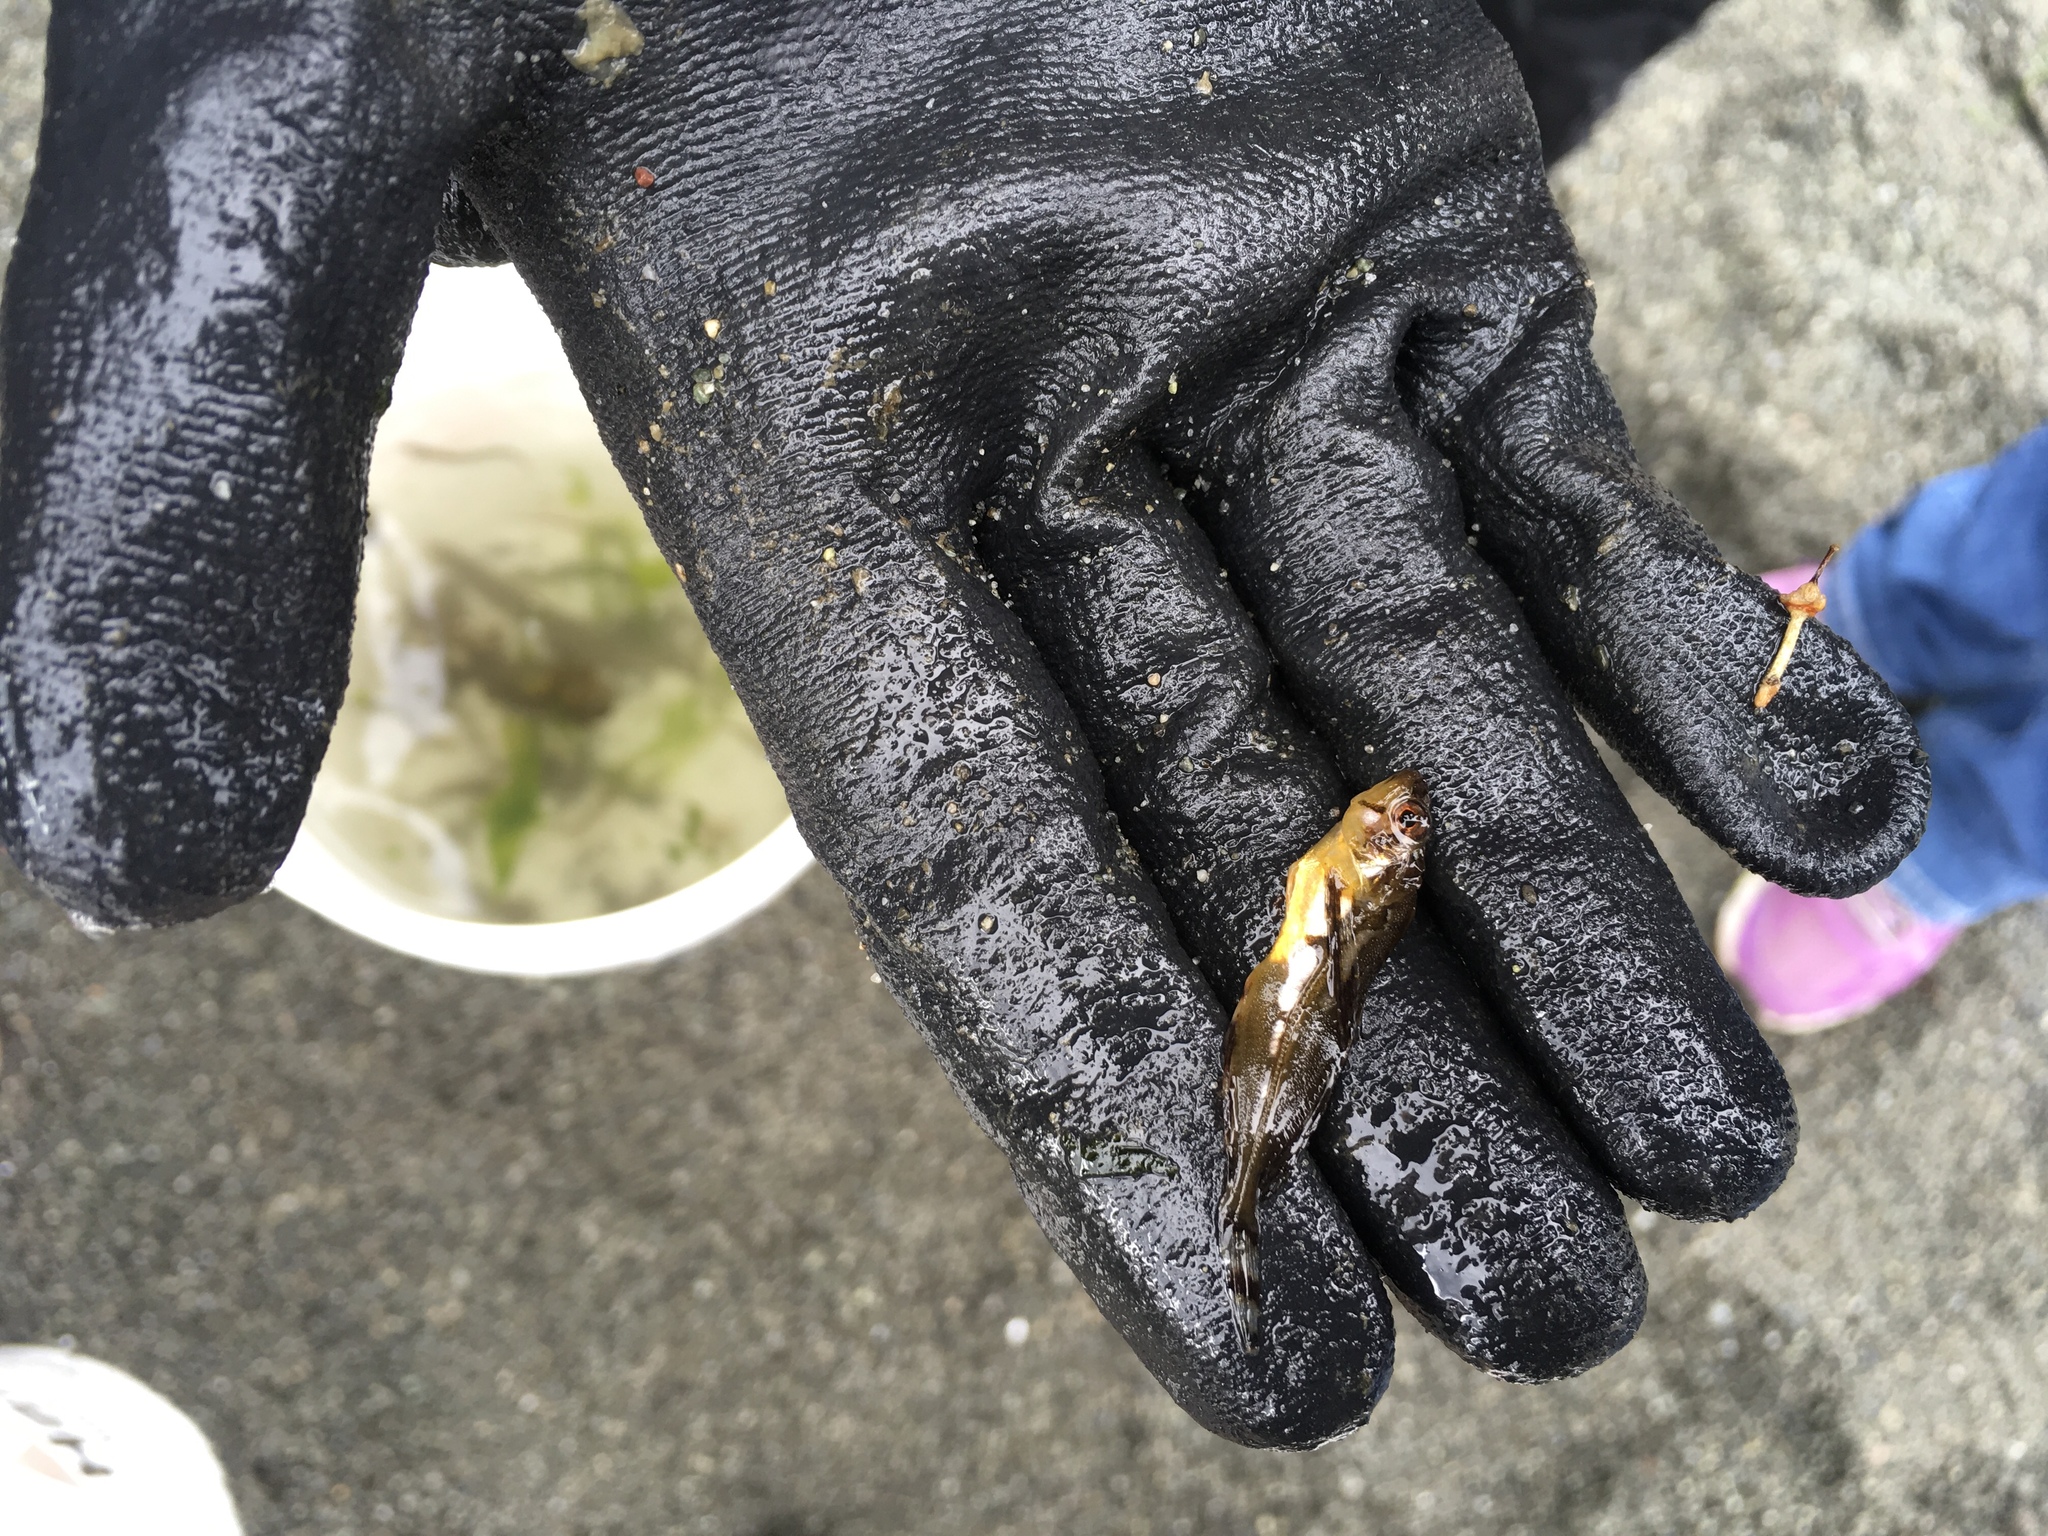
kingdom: Animalia
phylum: Chordata
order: Scorpaeniformes
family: Hemitripteridae
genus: Blepsias
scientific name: Blepsias cirrhosus
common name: Silverspotted sculpin
